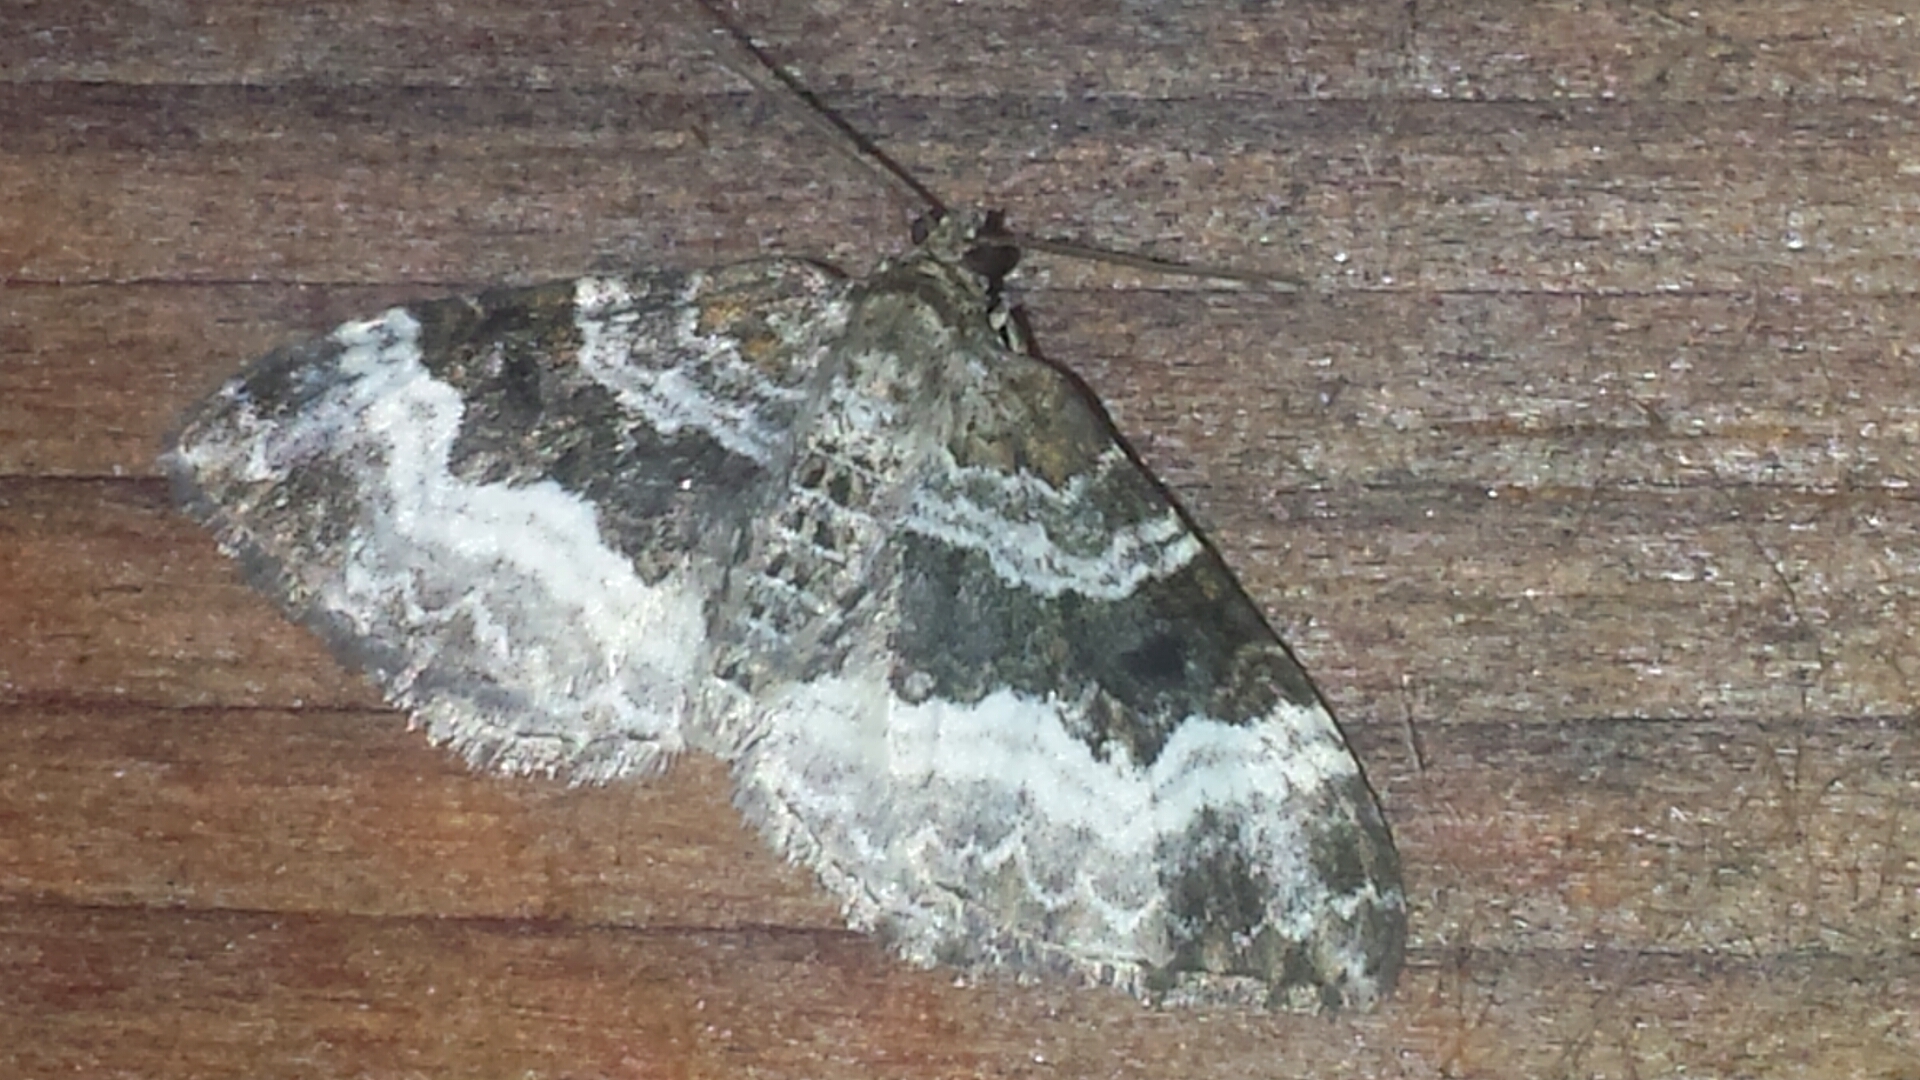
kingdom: Animalia
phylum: Arthropoda
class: Insecta
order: Lepidoptera
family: Geometridae
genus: Epirrhoe
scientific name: Epirrhoe alternata
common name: Common carpet
